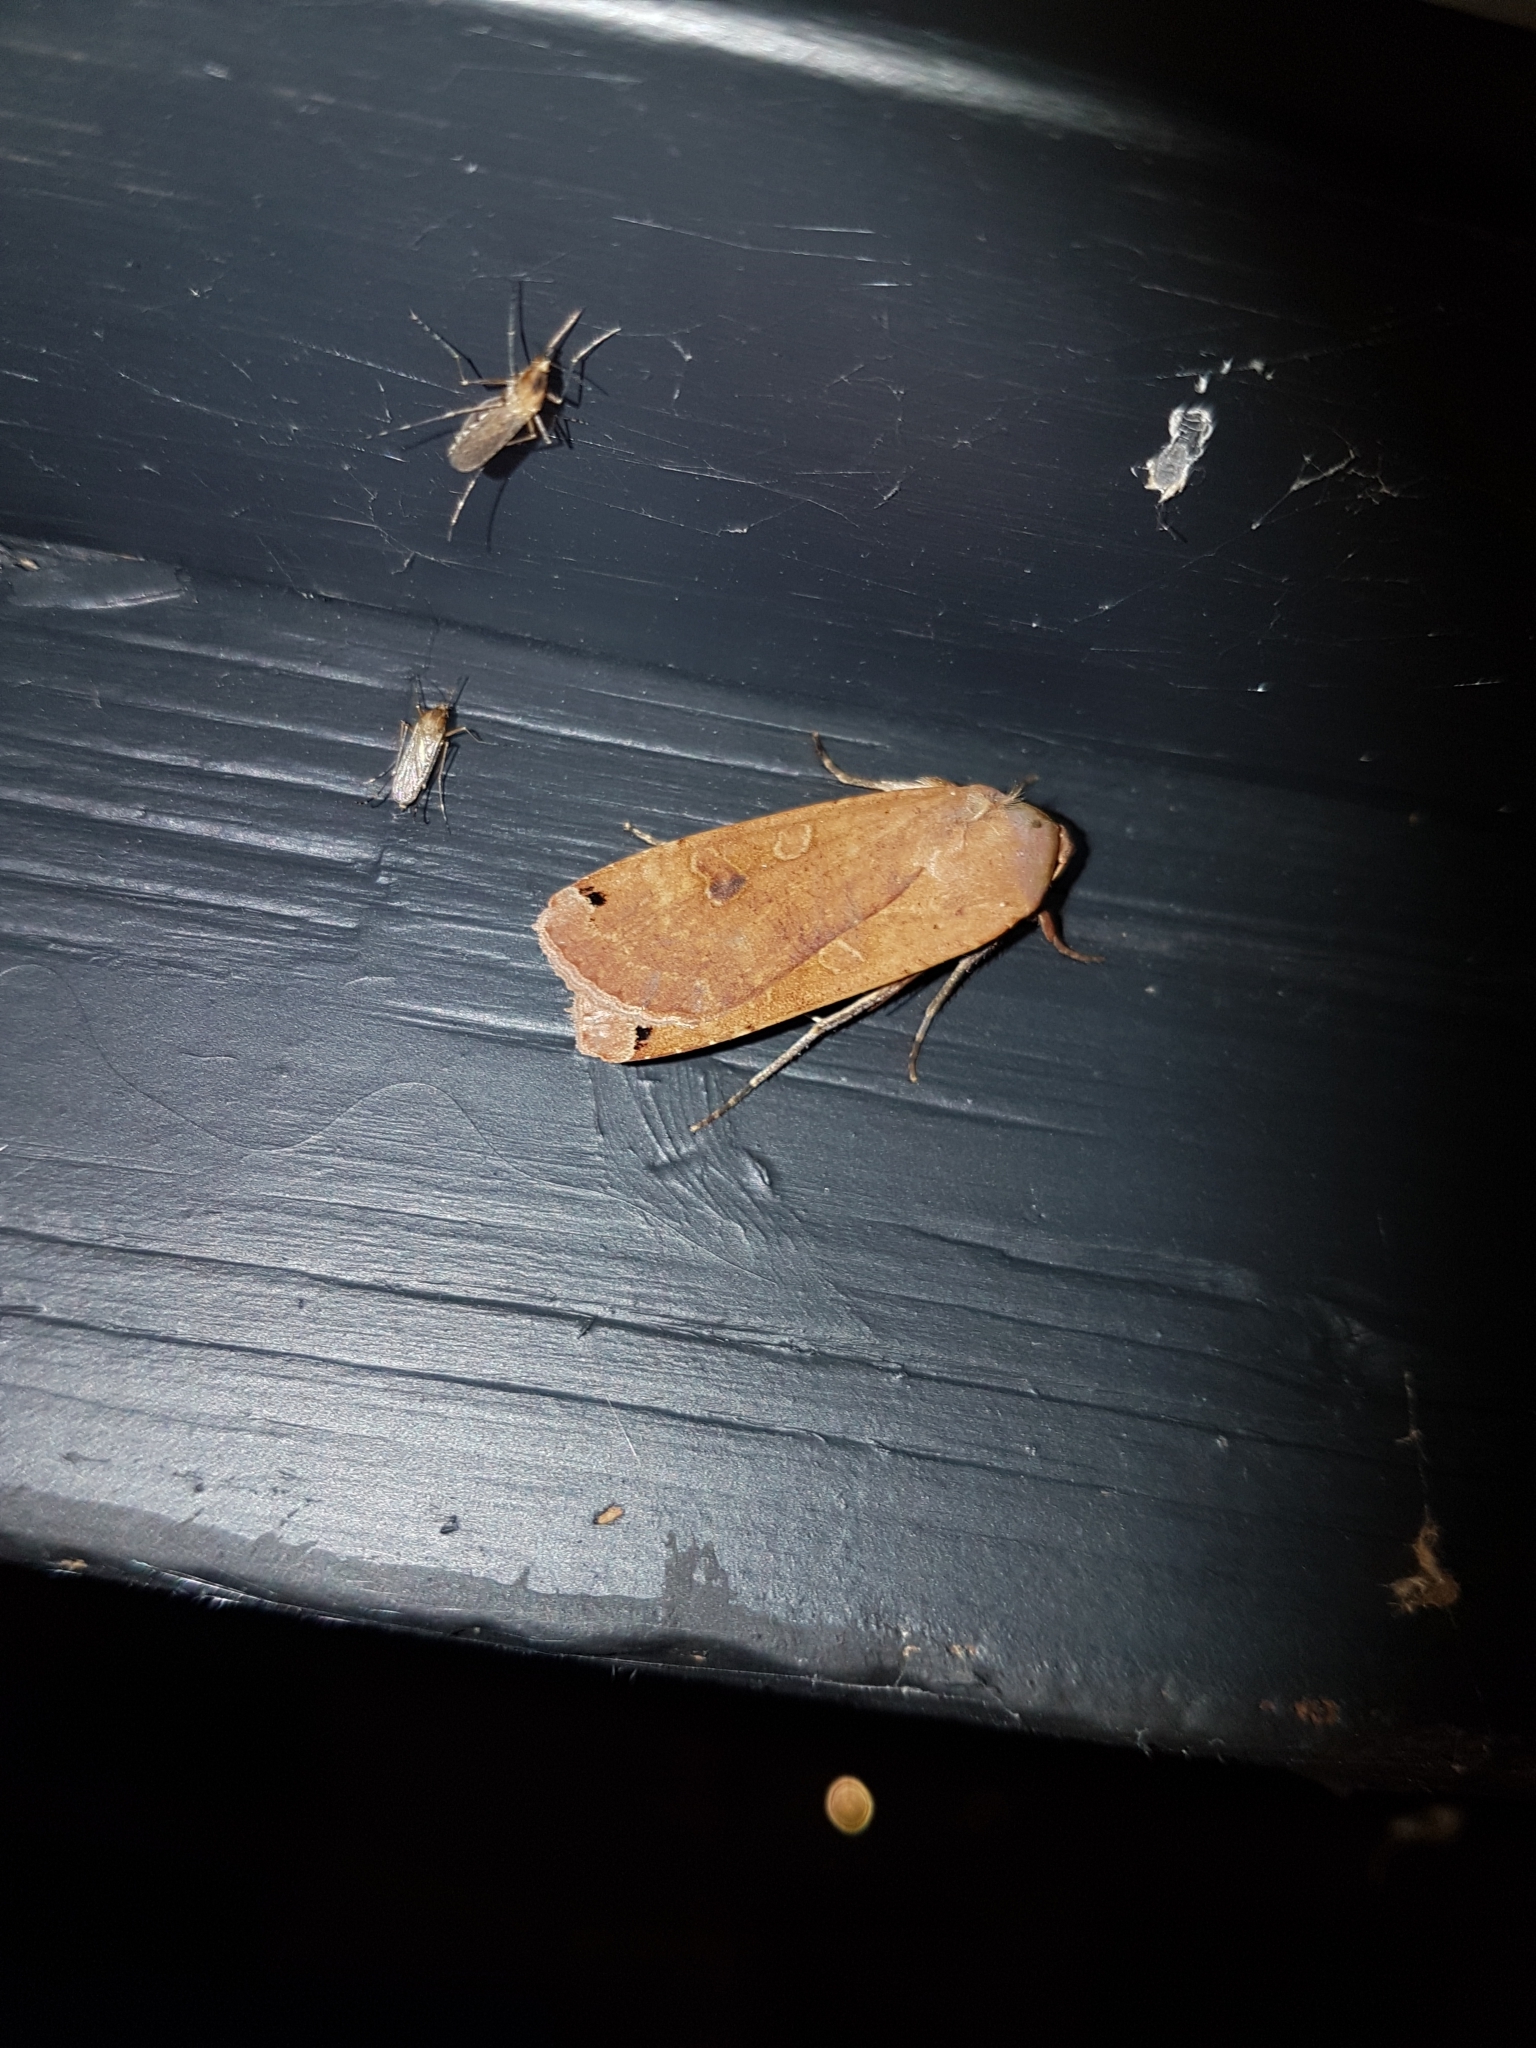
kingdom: Animalia
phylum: Arthropoda
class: Insecta
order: Lepidoptera
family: Noctuidae
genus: Noctua
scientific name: Noctua pronuba
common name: Large yellow underwing
